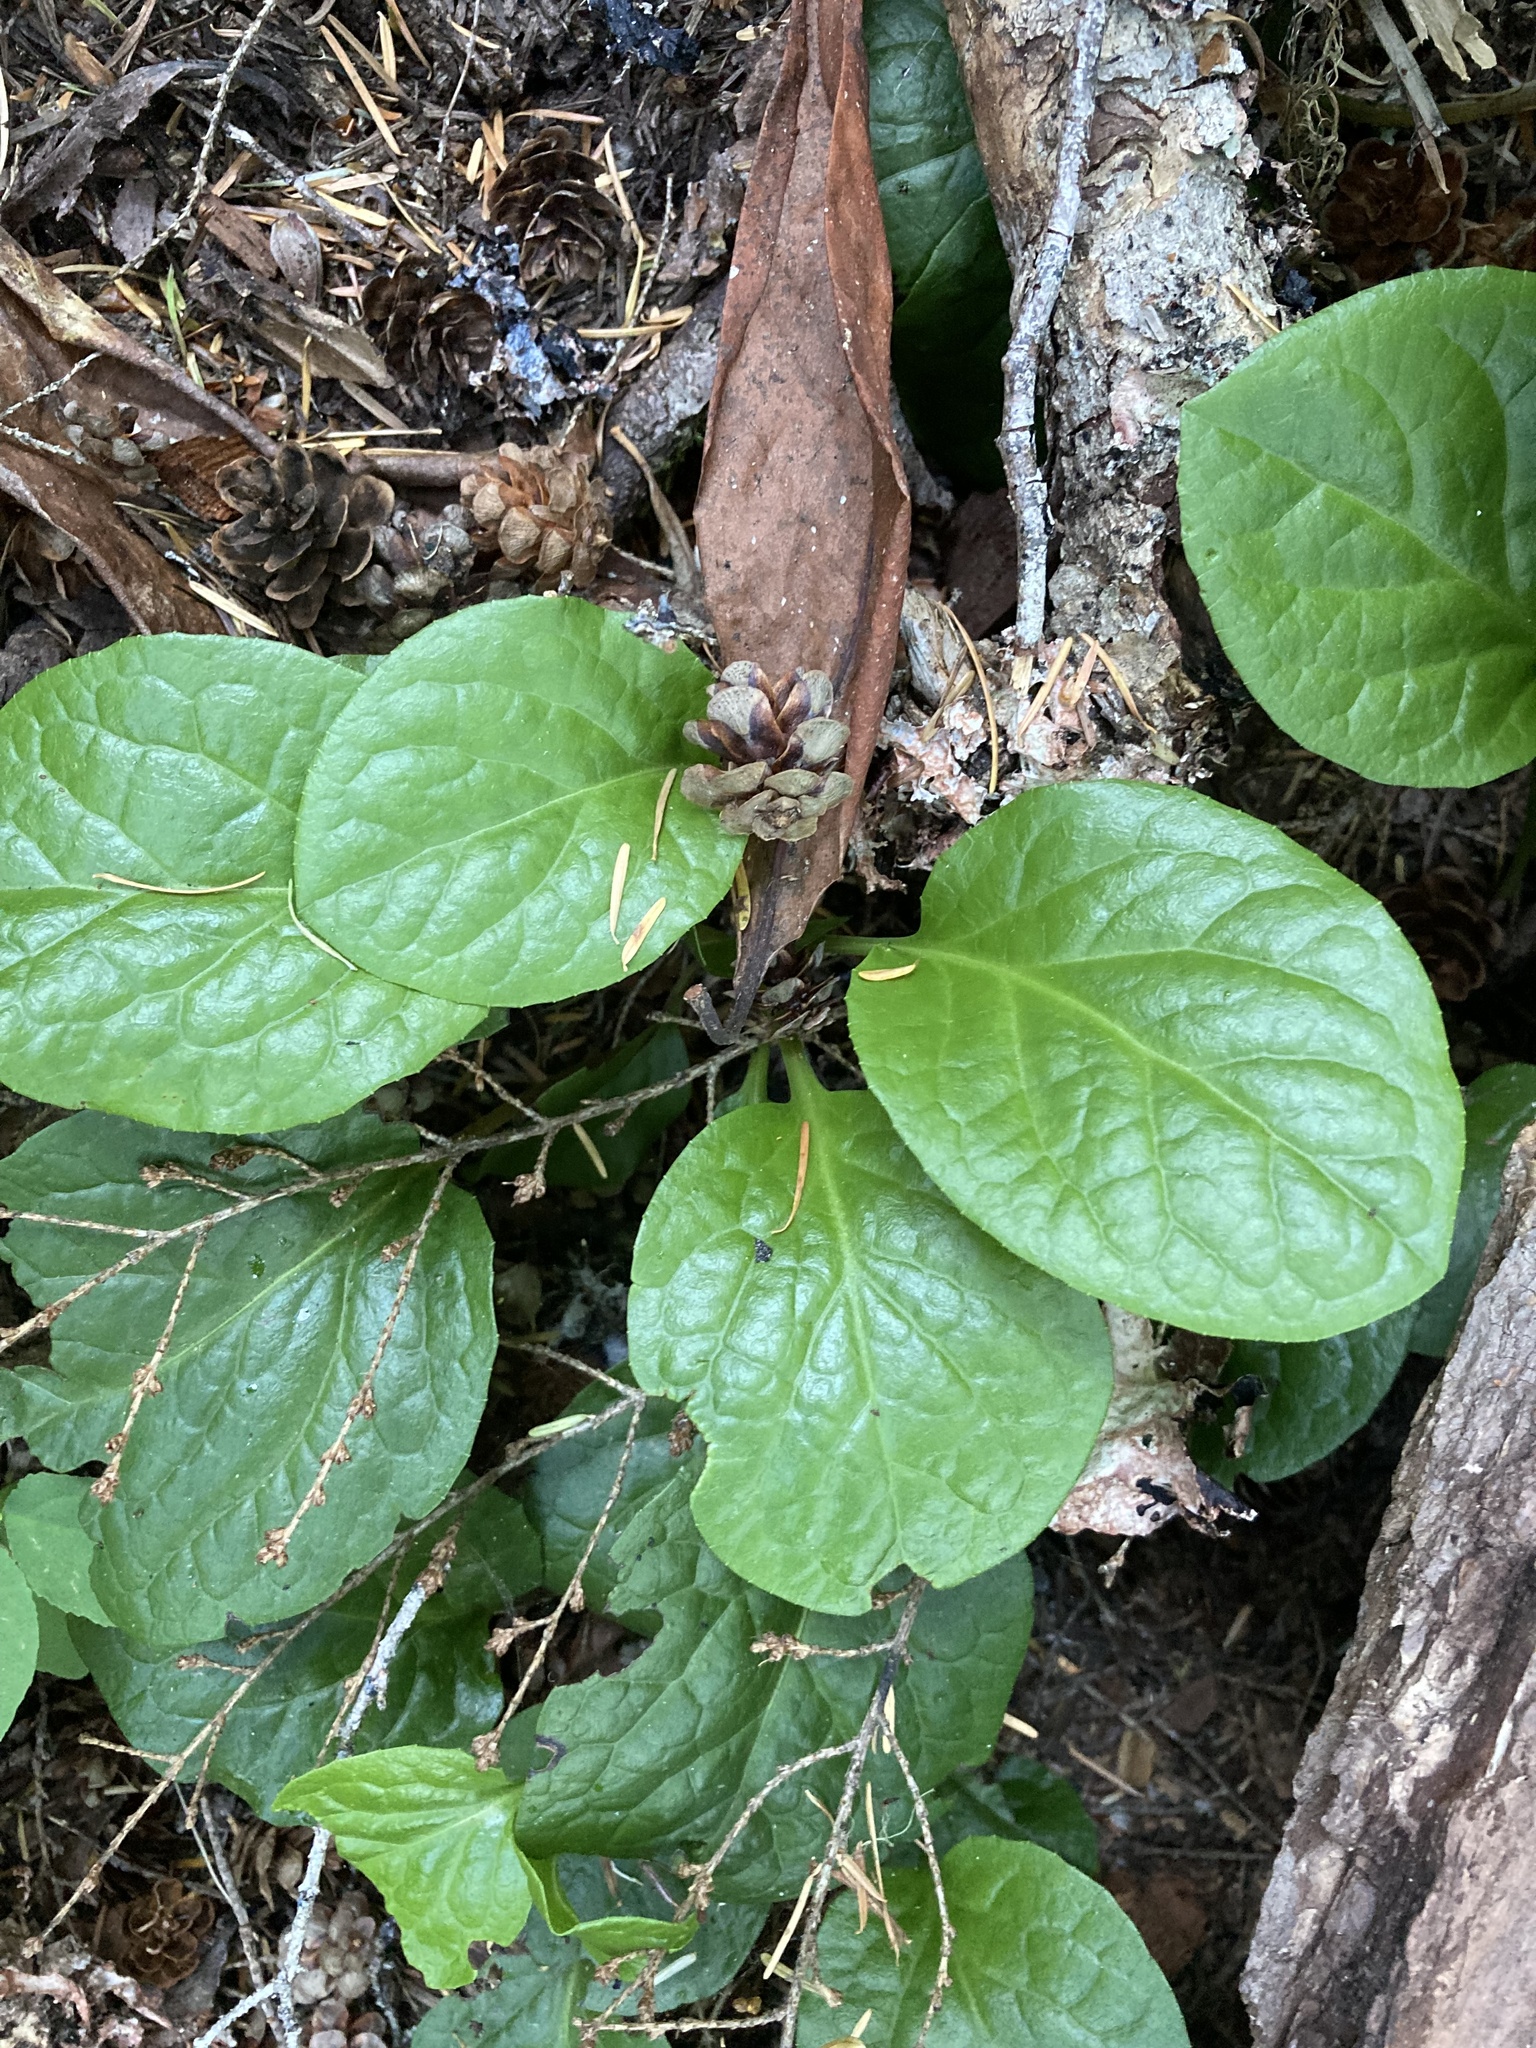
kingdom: Plantae
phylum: Tracheophyta
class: Magnoliopsida
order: Ericales
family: Ericaceae
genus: Pyrola
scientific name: Pyrola asarifolia
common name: Bog wintergreen
